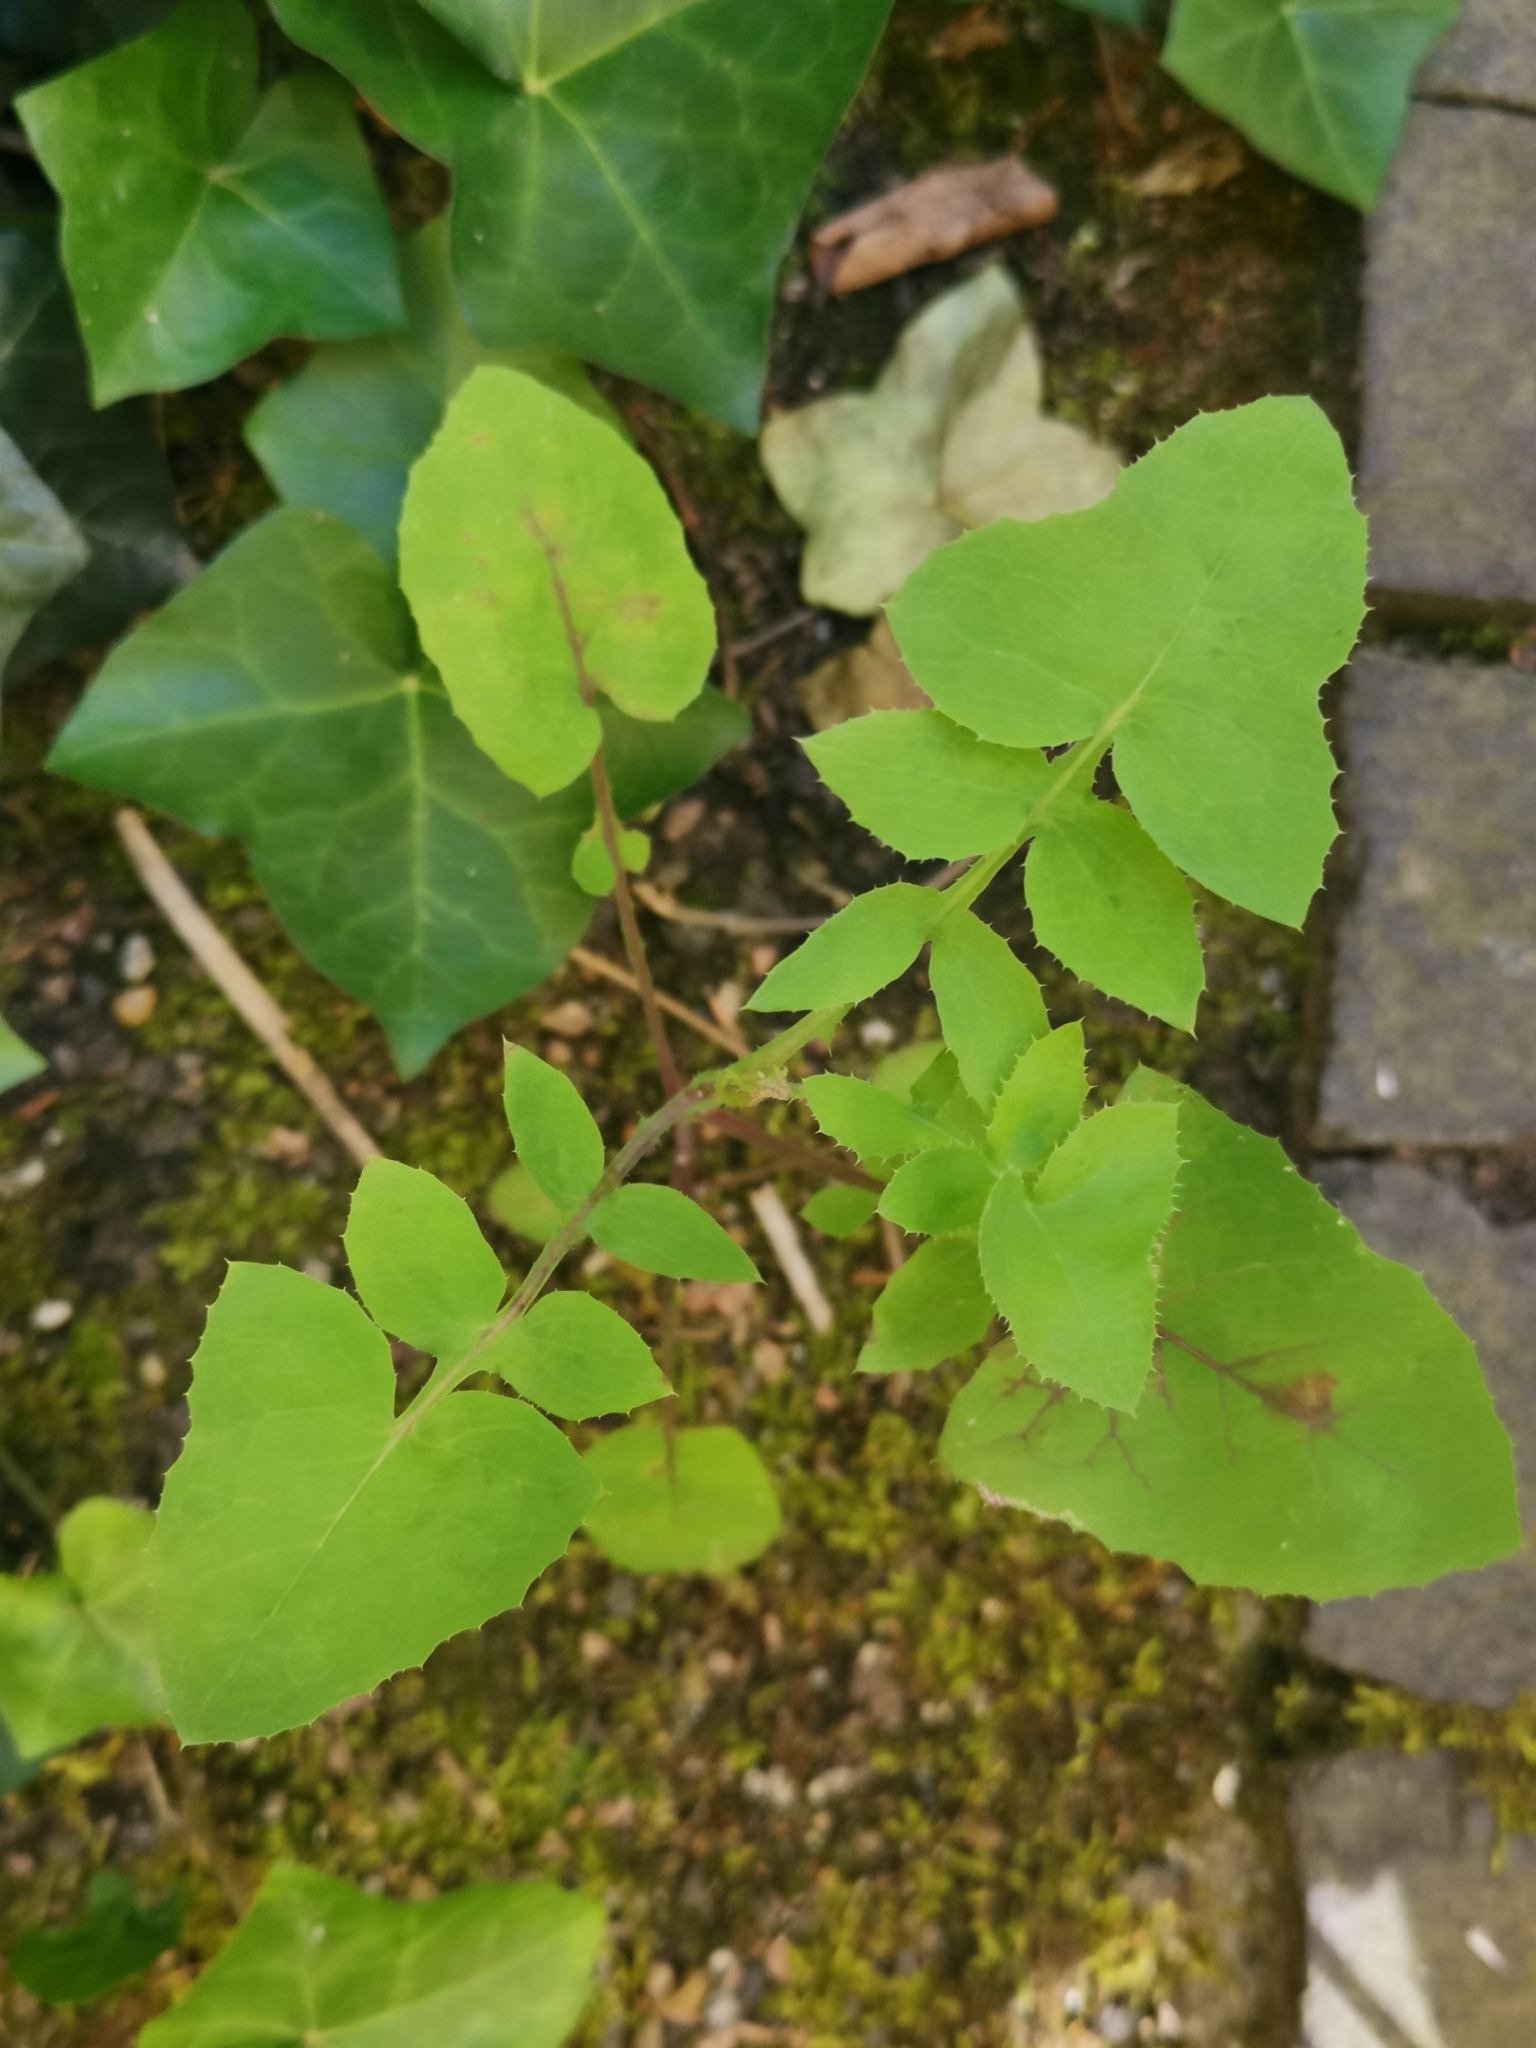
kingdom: Plantae
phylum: Tracheophyta
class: Magnoliopsida
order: Asterales
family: Asteraceae
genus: Sonchus
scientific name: Sonchus oleraceus
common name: Common sowthistle
